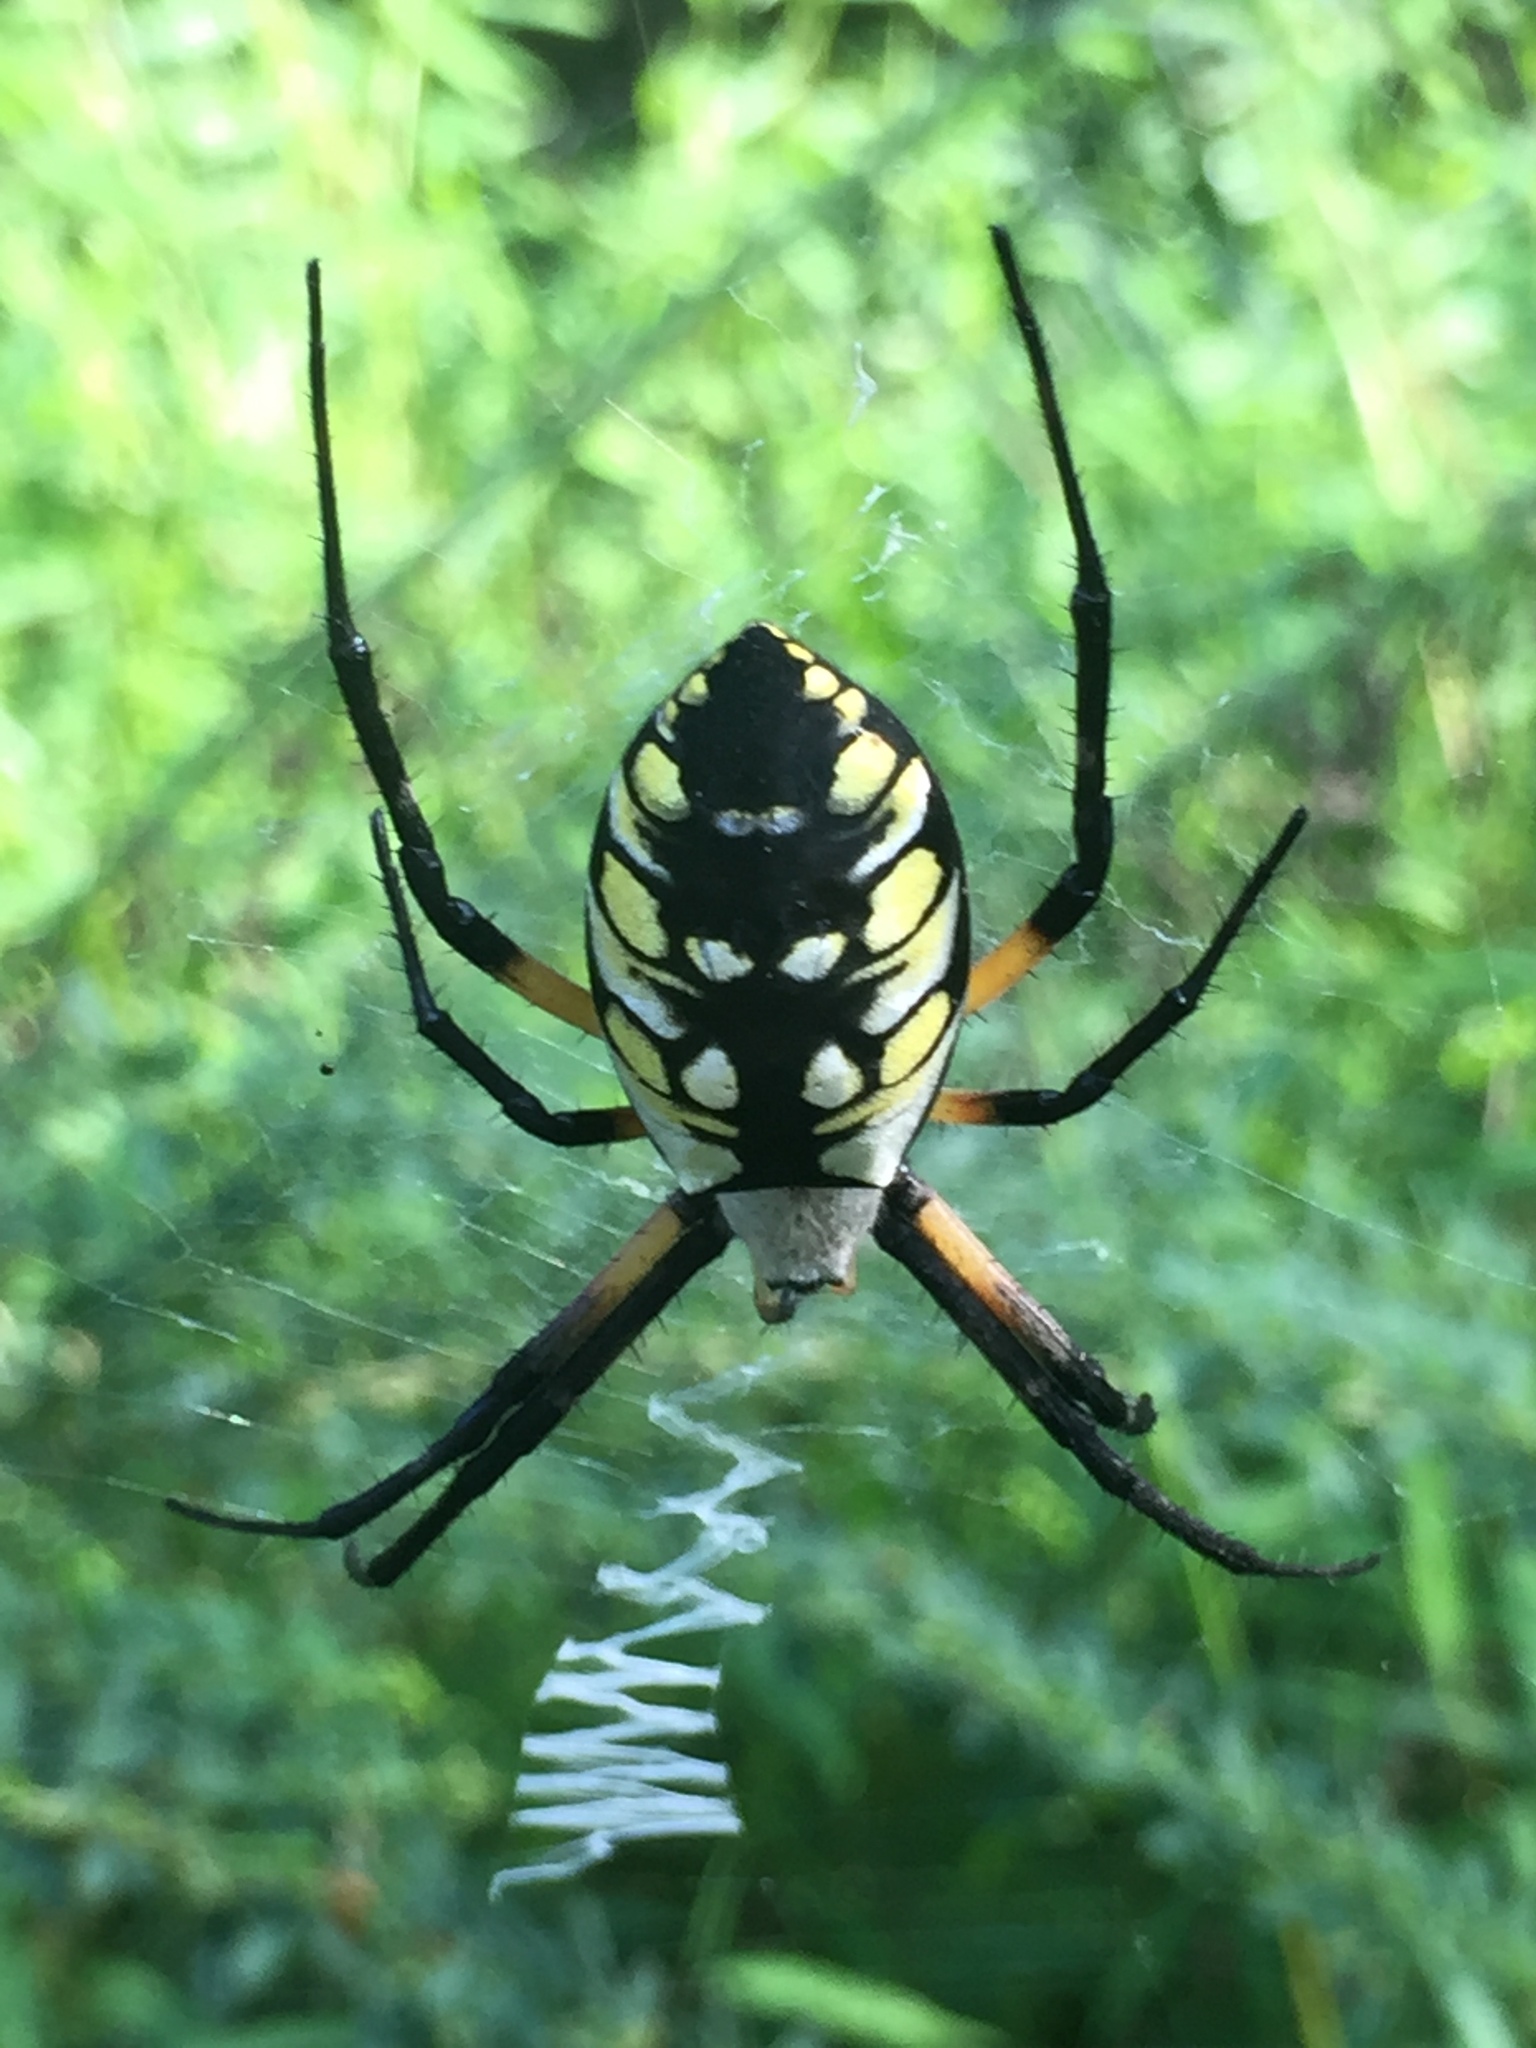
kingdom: Animalia
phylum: Arthropoda
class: Arachnida
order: Araneae
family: Araneidae
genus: Argiope
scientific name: Argiope aurantia
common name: Orb weavers
